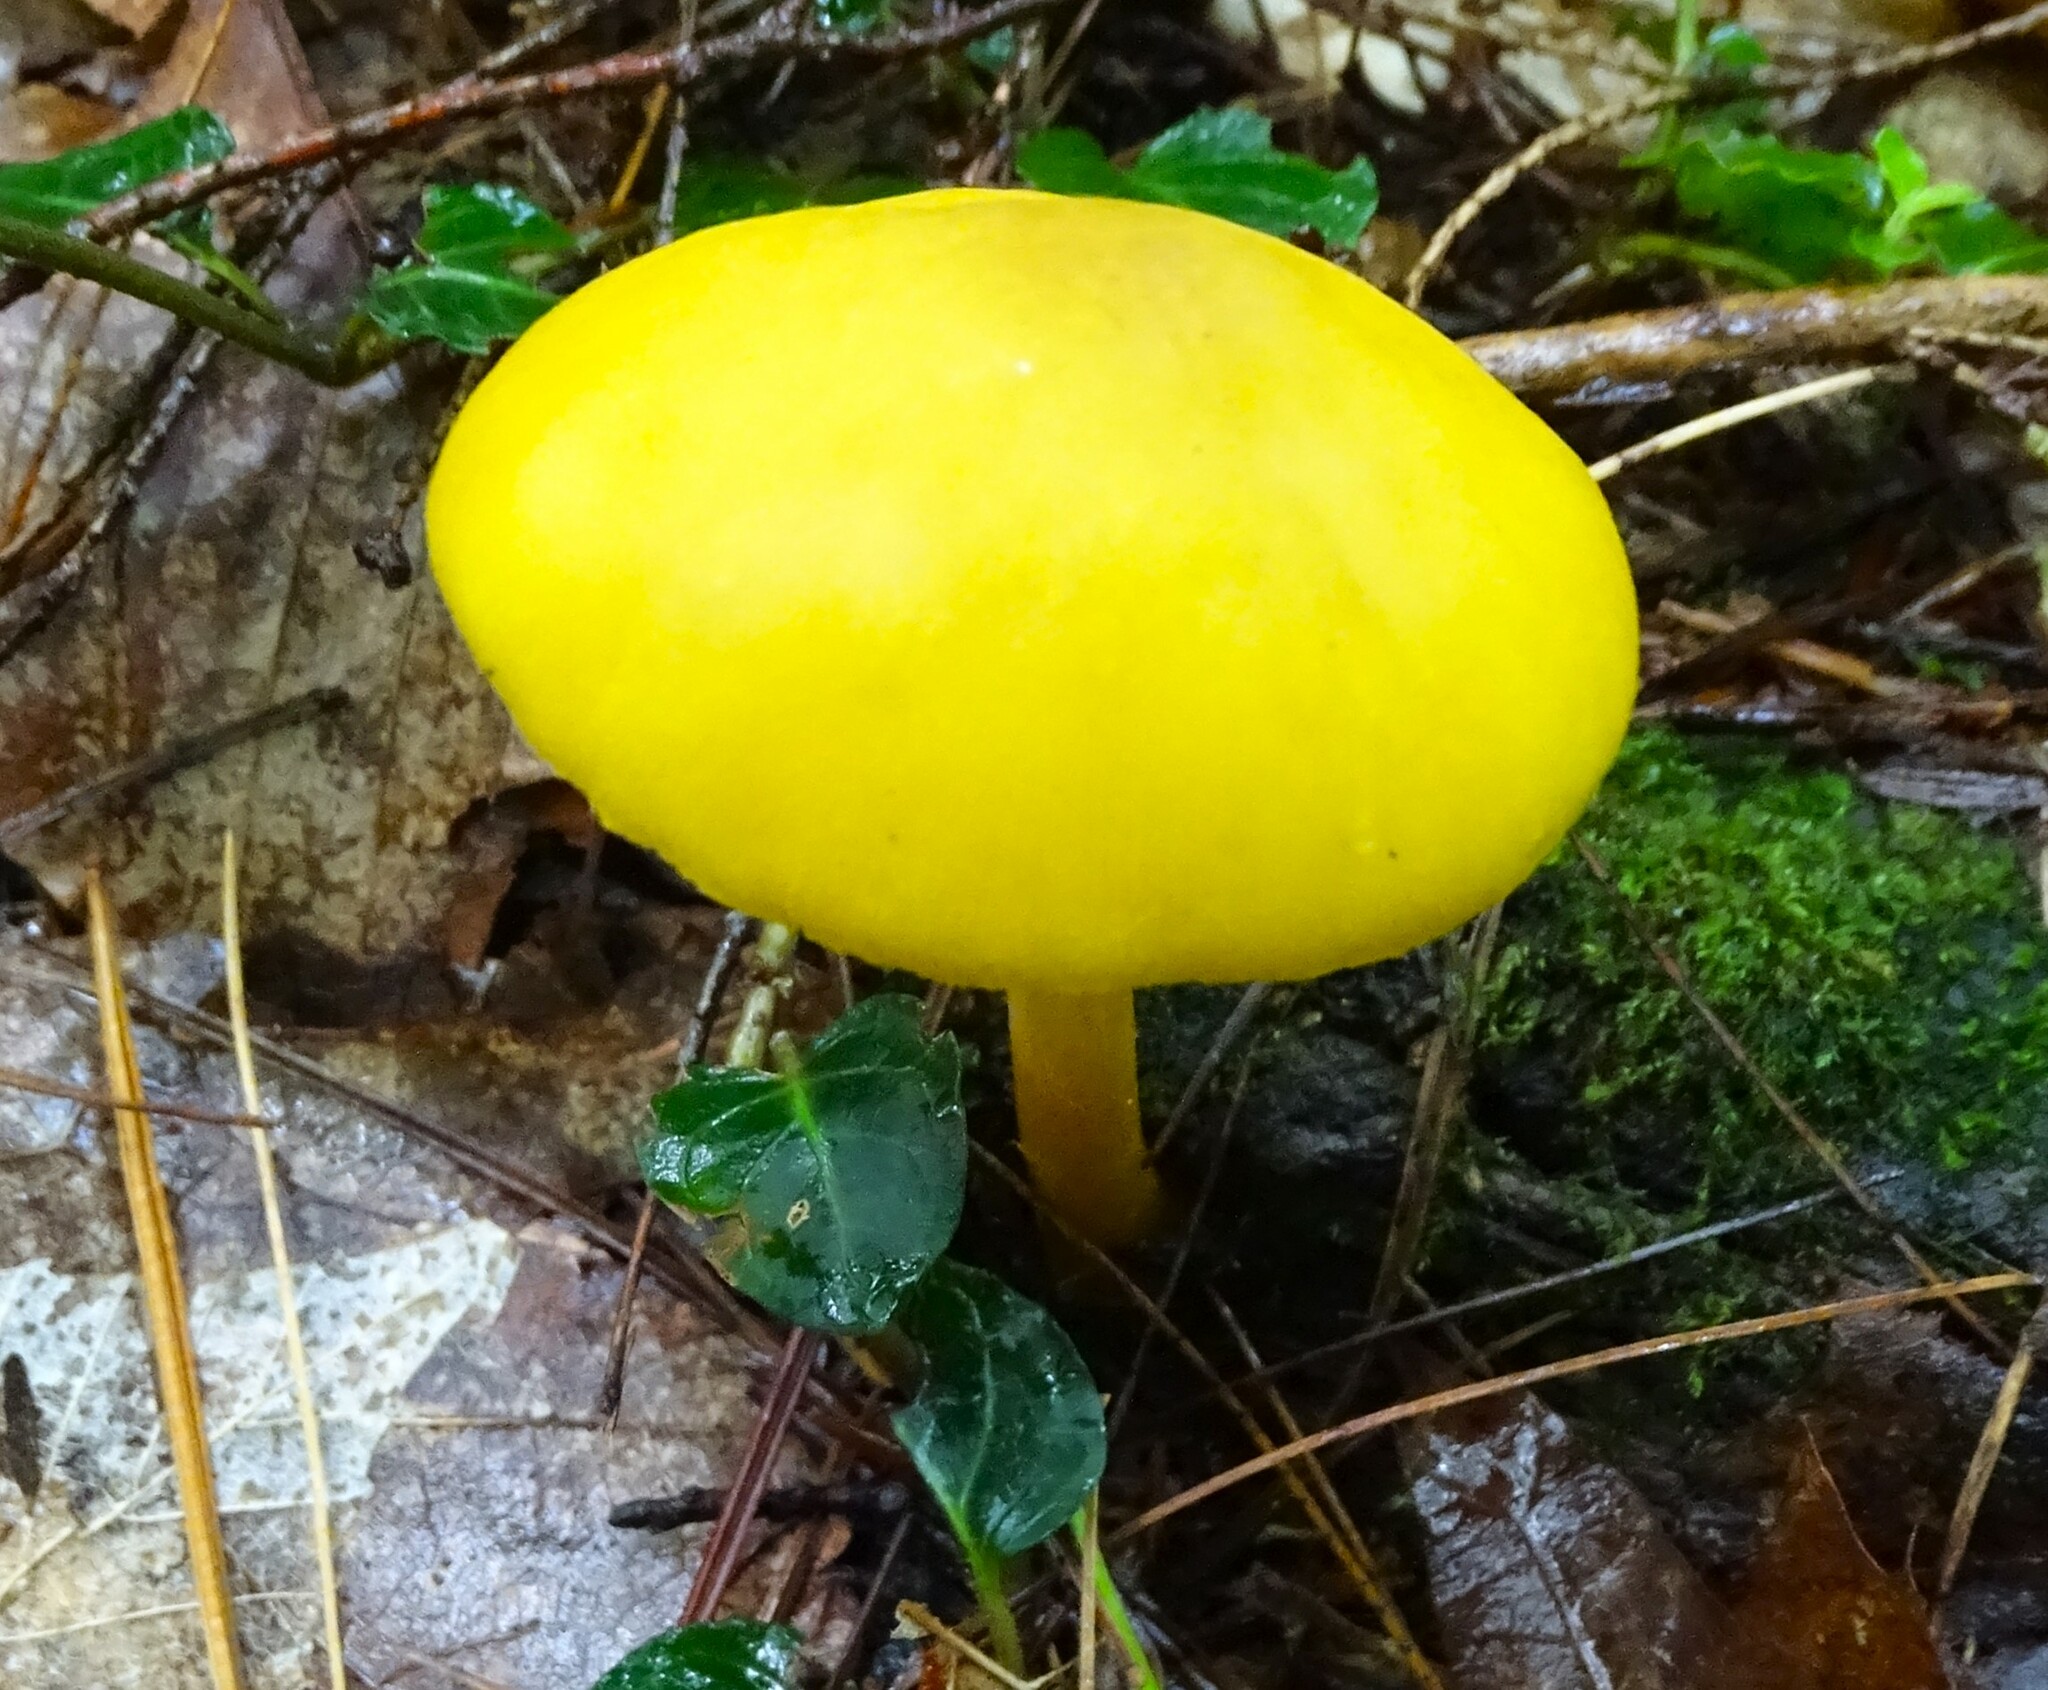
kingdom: Fungi
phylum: Basidiomycota
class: Agaricomycetes
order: Agaricales
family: Pluteaceae
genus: Pluteus
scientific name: Pluteus chrysophlebius
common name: Yellow deer mushroom
